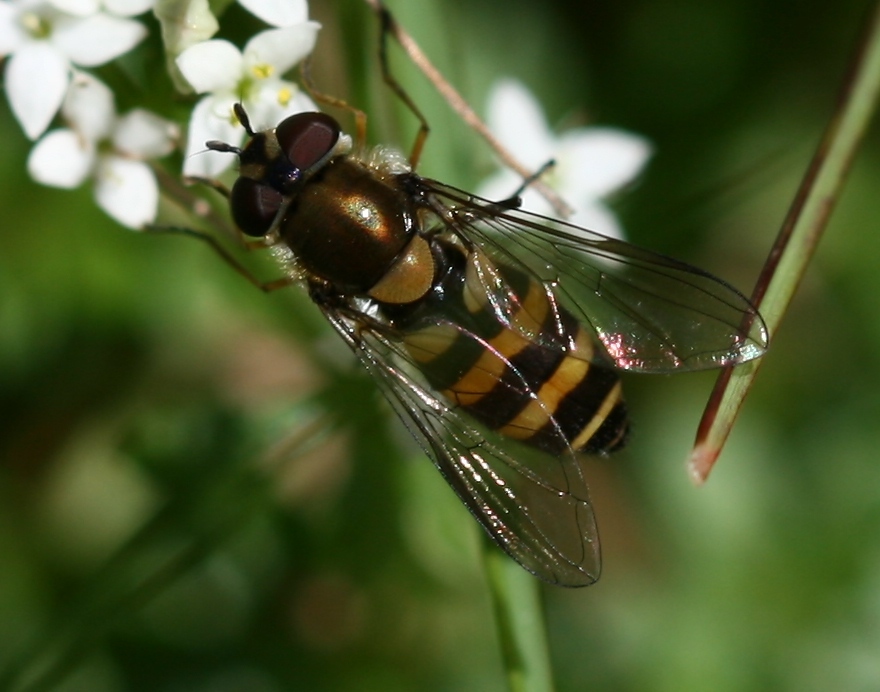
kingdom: Animalia
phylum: Arthropoda
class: Insecta
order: Diptera
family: Syrphidae
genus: Parasyrphus
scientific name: Parasyrphus lineolus
